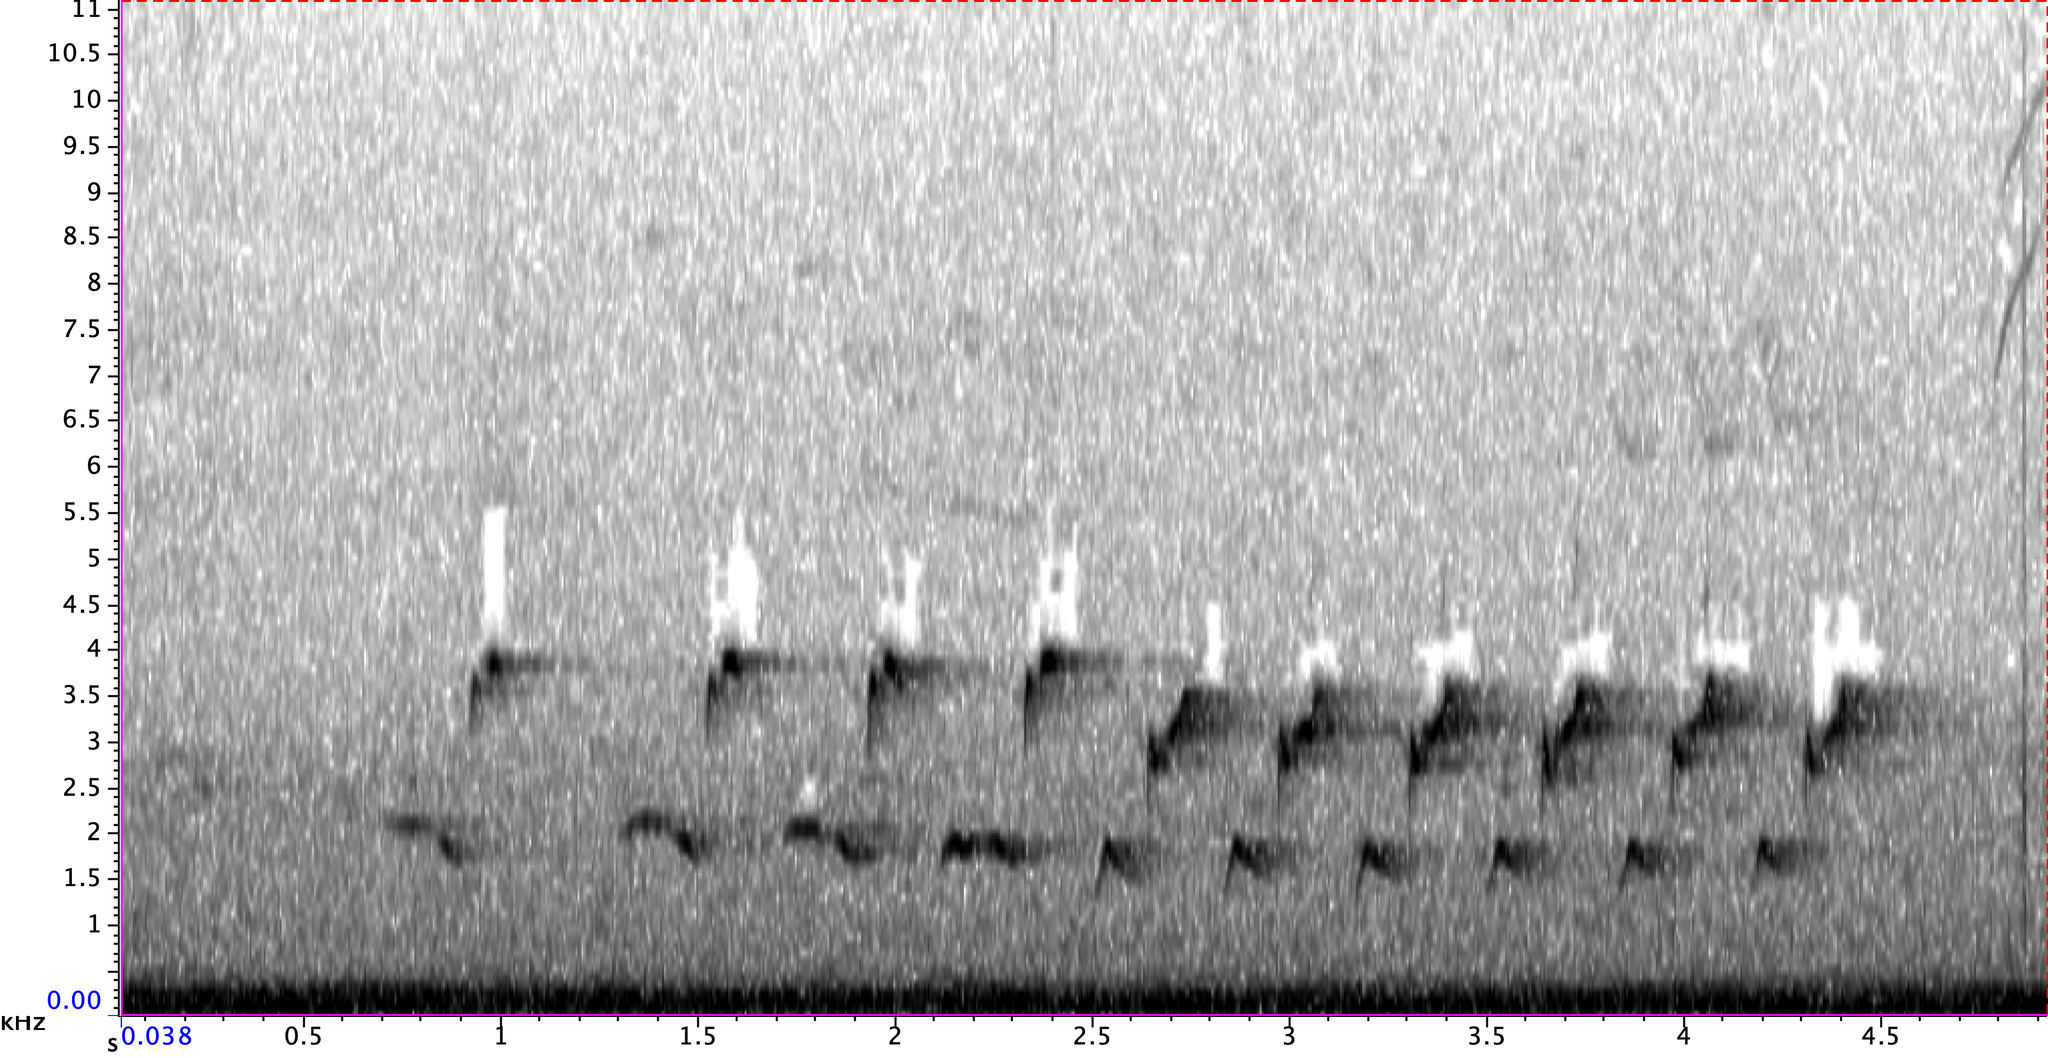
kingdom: Animalia
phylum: Chordata
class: Aves
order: Passeriformes
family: Cardinalidae
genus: Cardinalis
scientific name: Cardinalis cardinalis
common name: Northern cardinal
